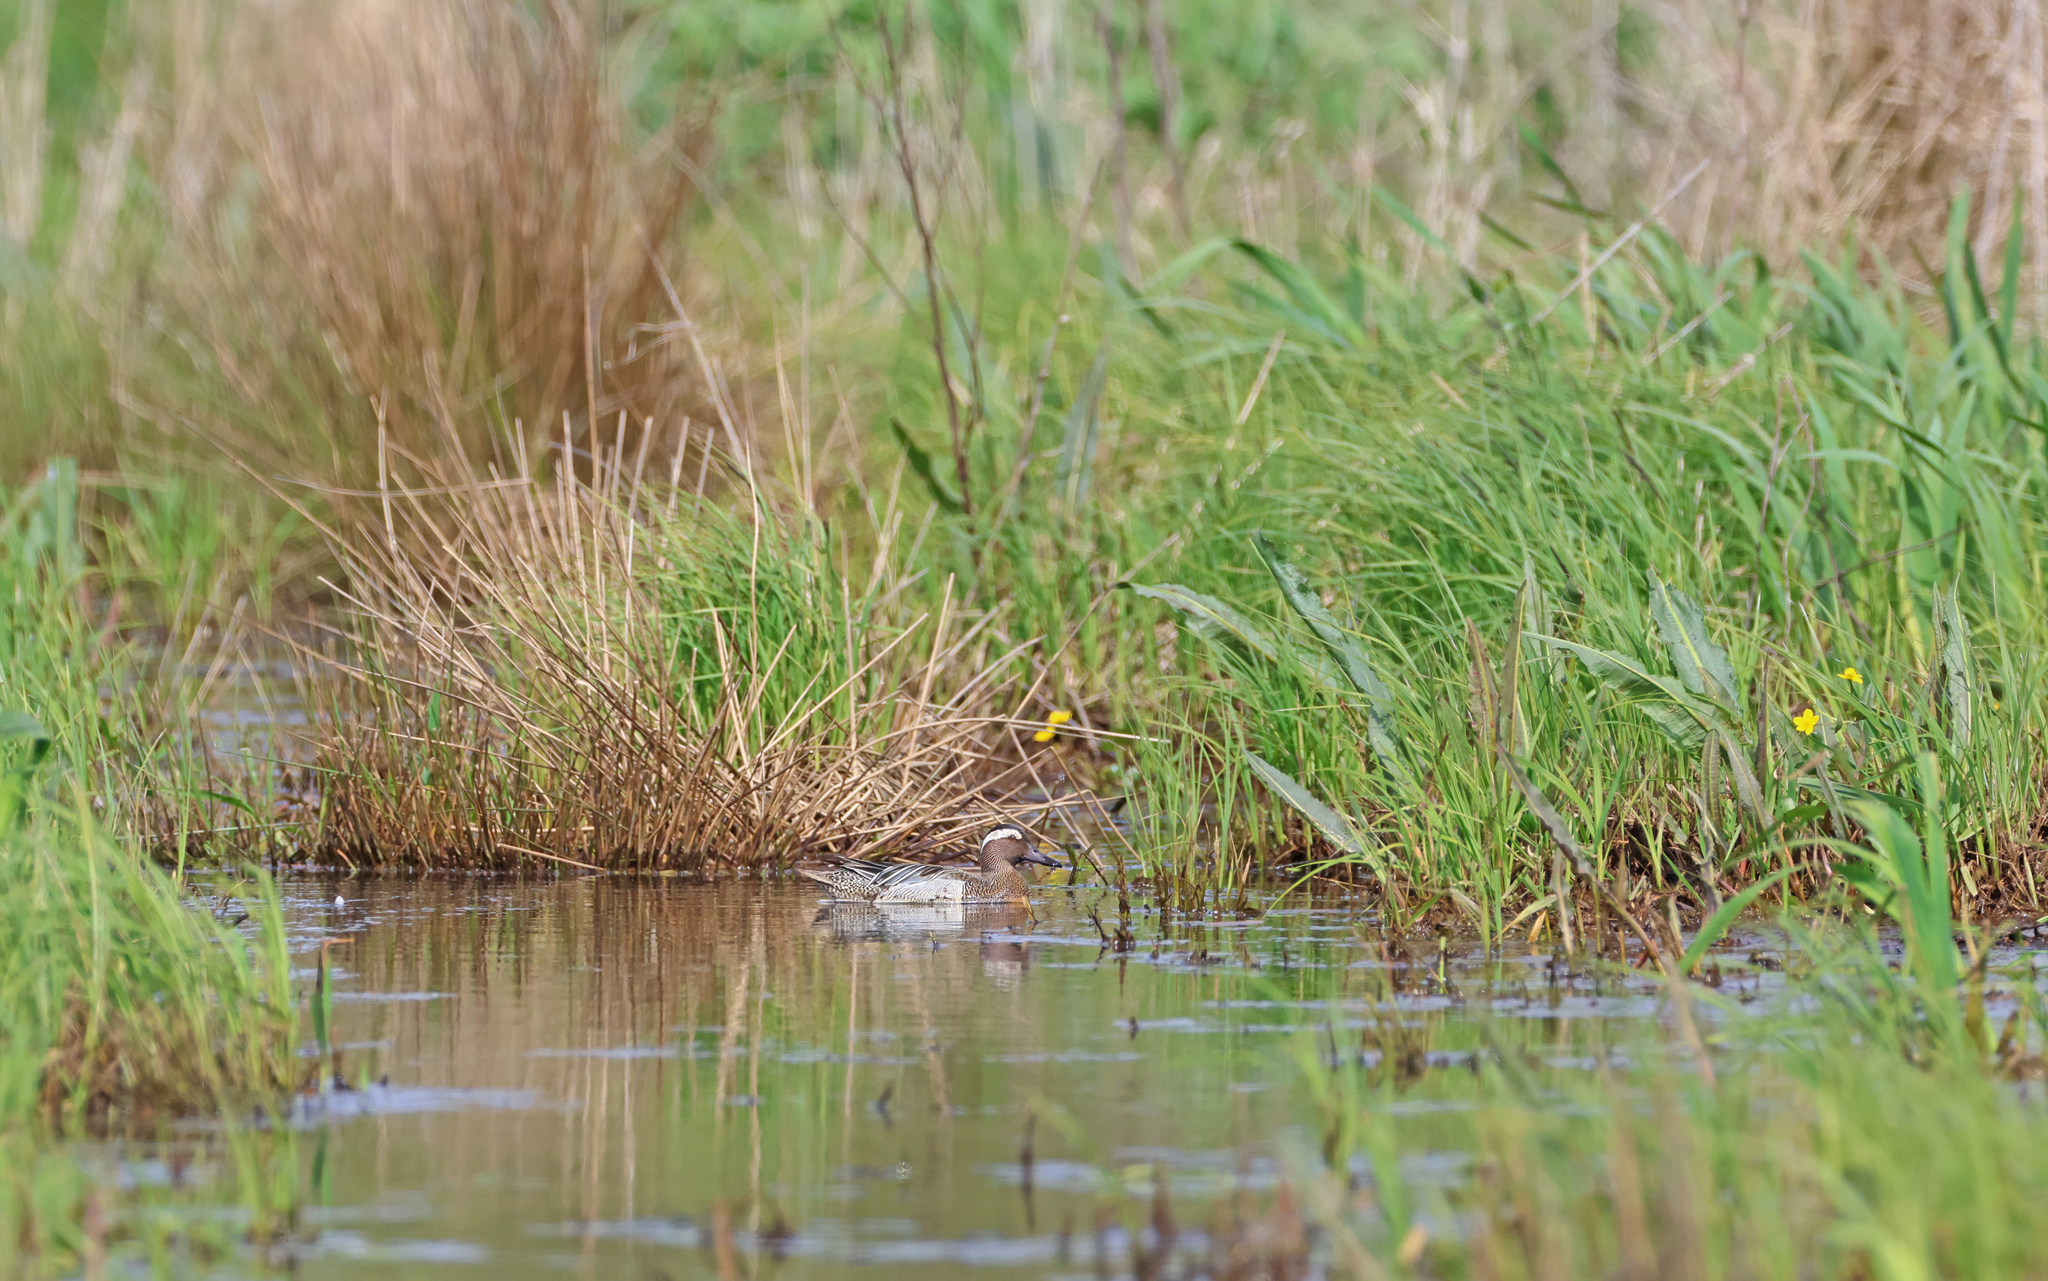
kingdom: Animalia
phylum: Chordata
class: Aves
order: Anseriformes
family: Anatidae
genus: Spatula
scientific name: Spatula querquedula
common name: Garganey
